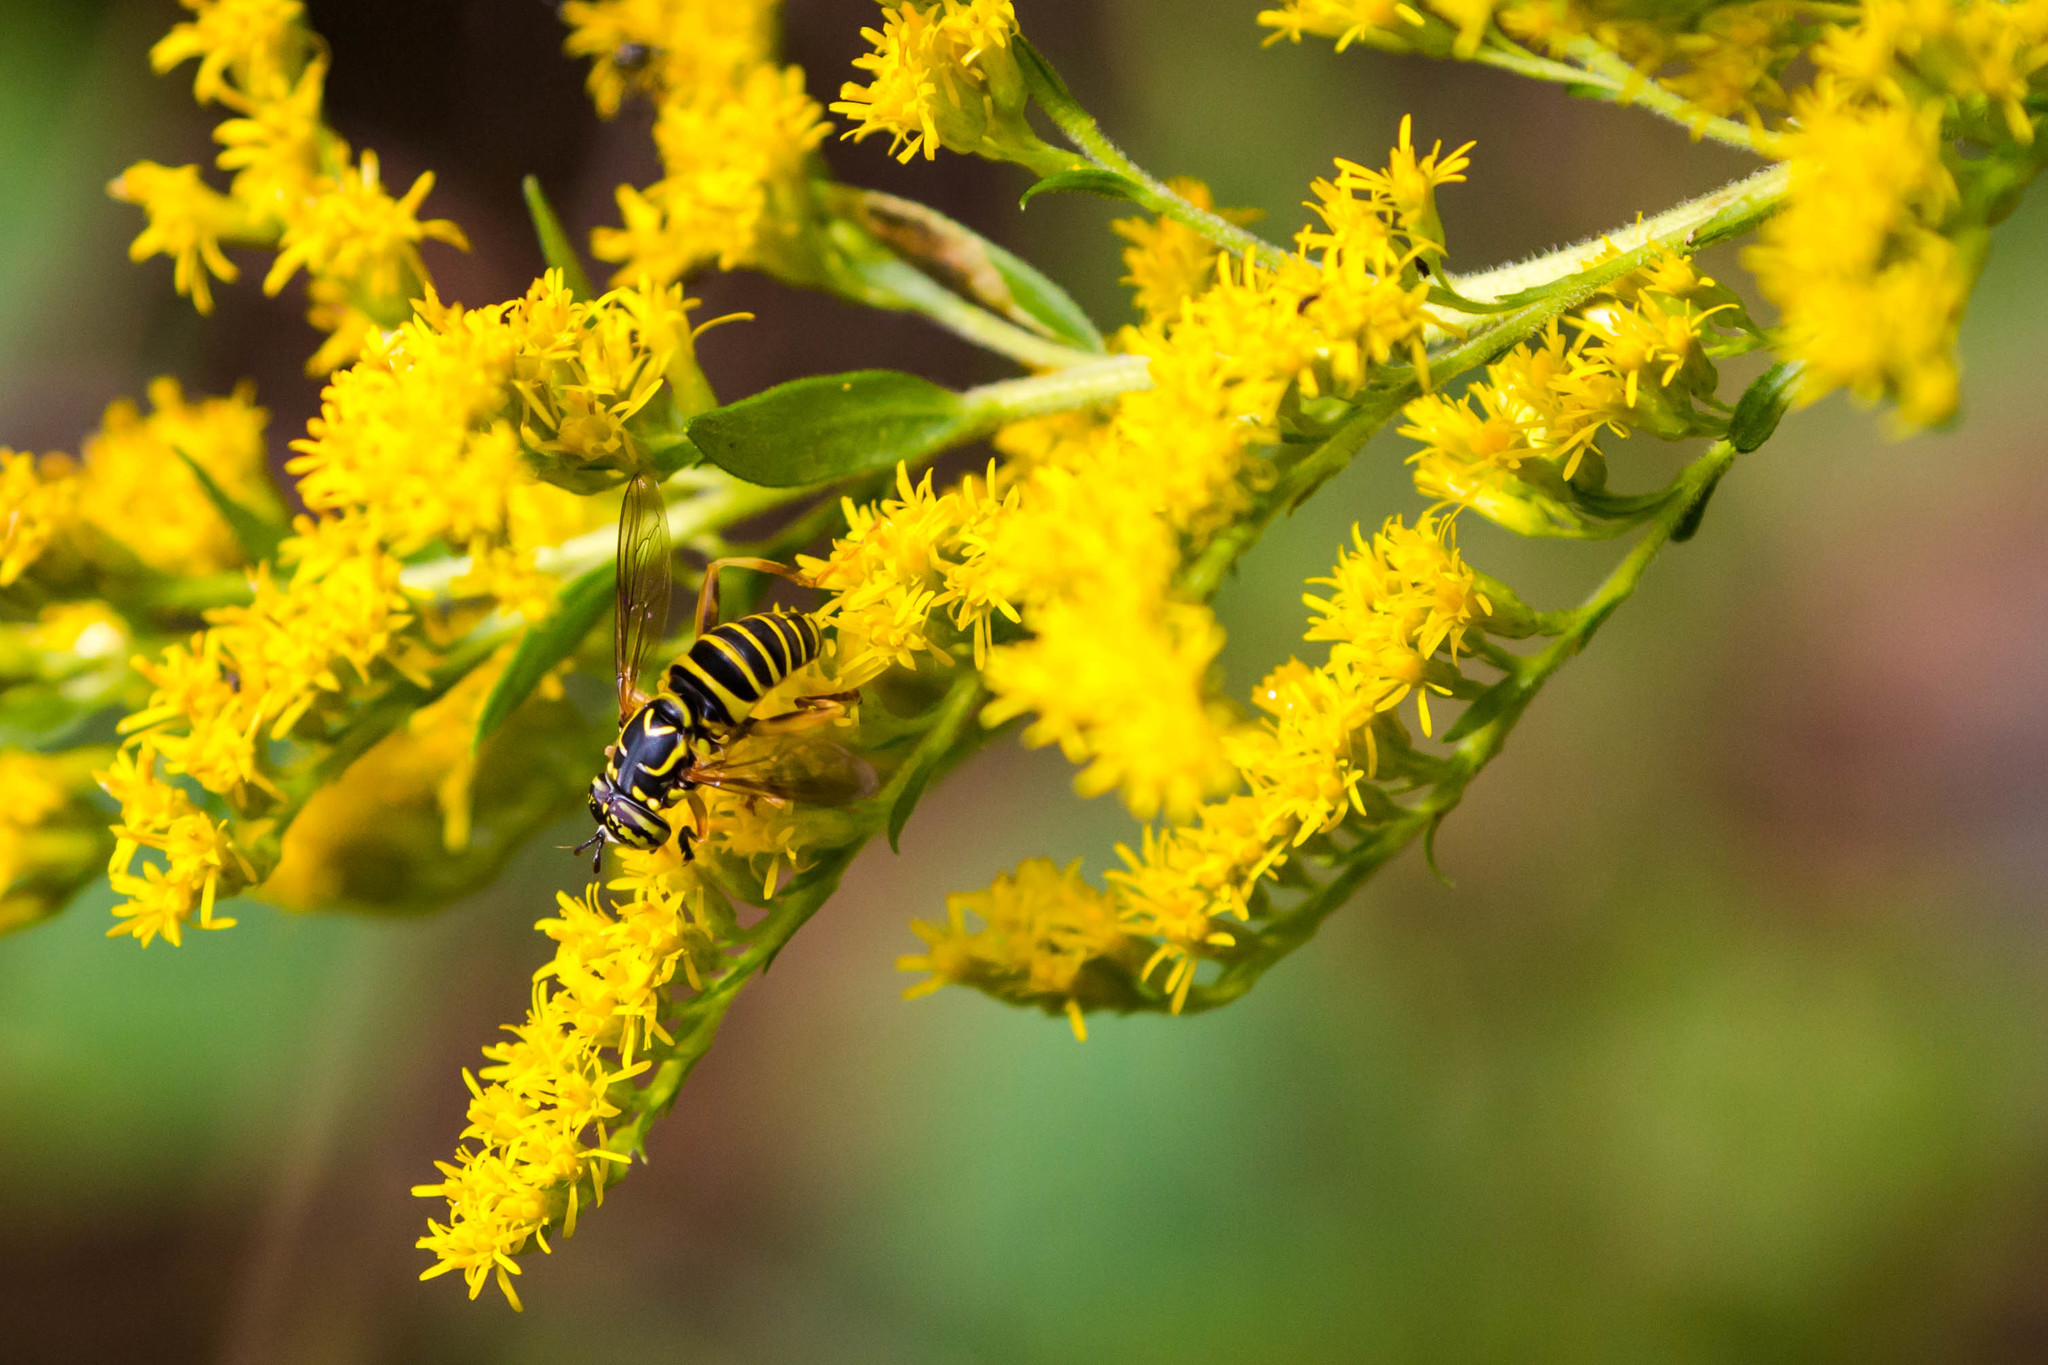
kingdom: Animalia
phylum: Arthropoda
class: Insecta
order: Diptera
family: Syrphidae
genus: Spilomyia
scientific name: Spilomyia longicornis
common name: Eastern hornet fly
